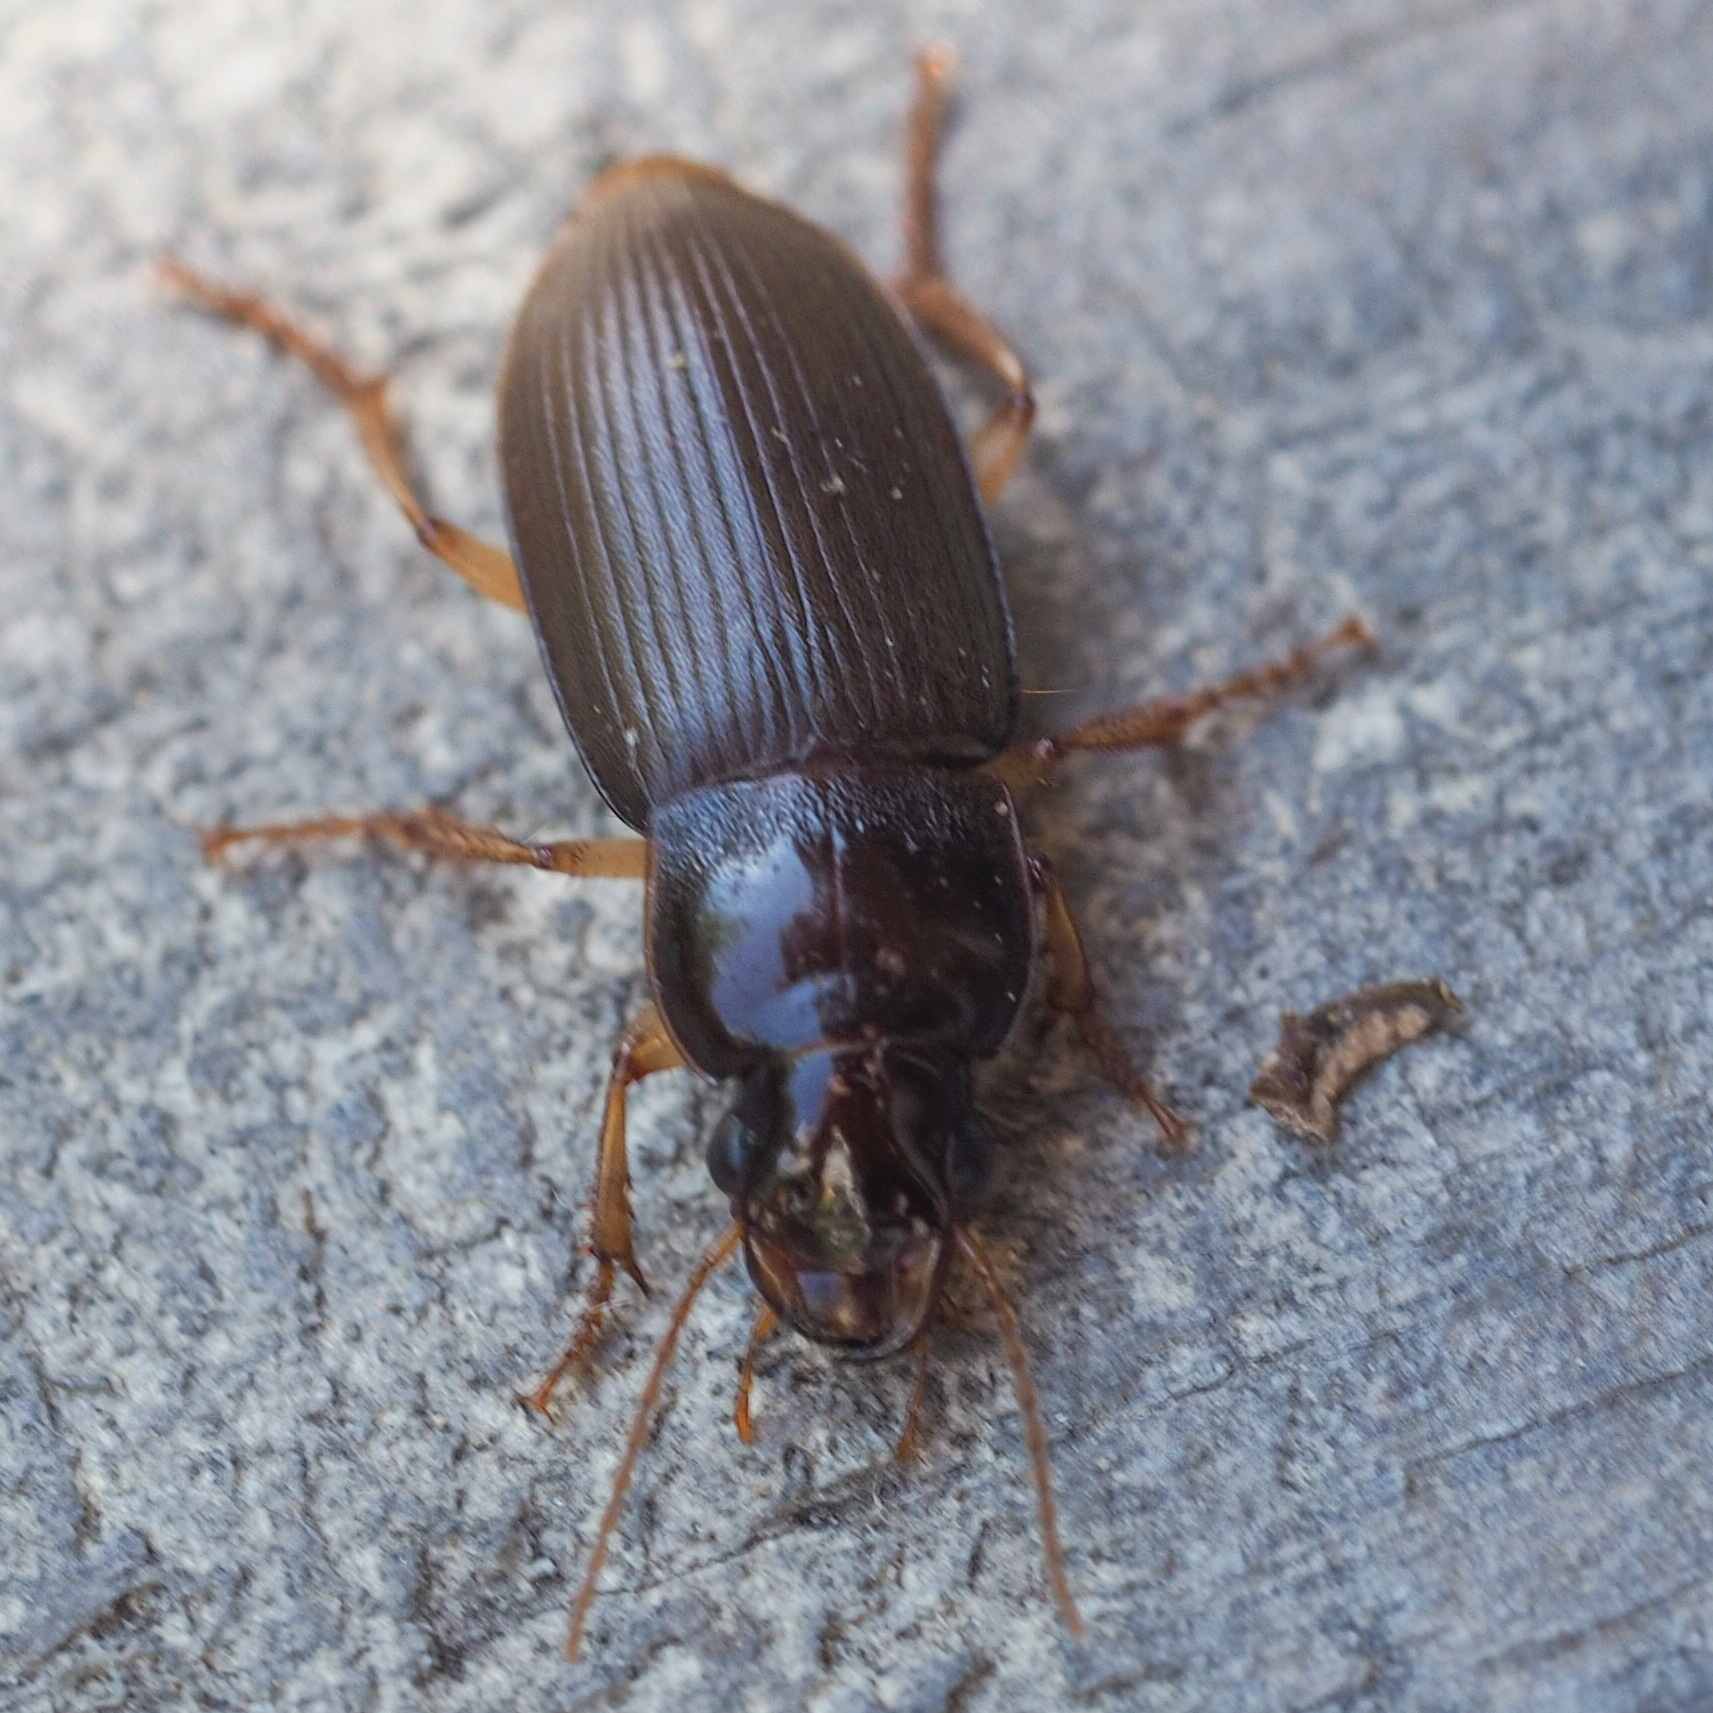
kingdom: Animalia
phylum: Arthropoda
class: Insecta
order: Coleoptera
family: Carabidae
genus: Harpalus
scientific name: Harpalus griseus
